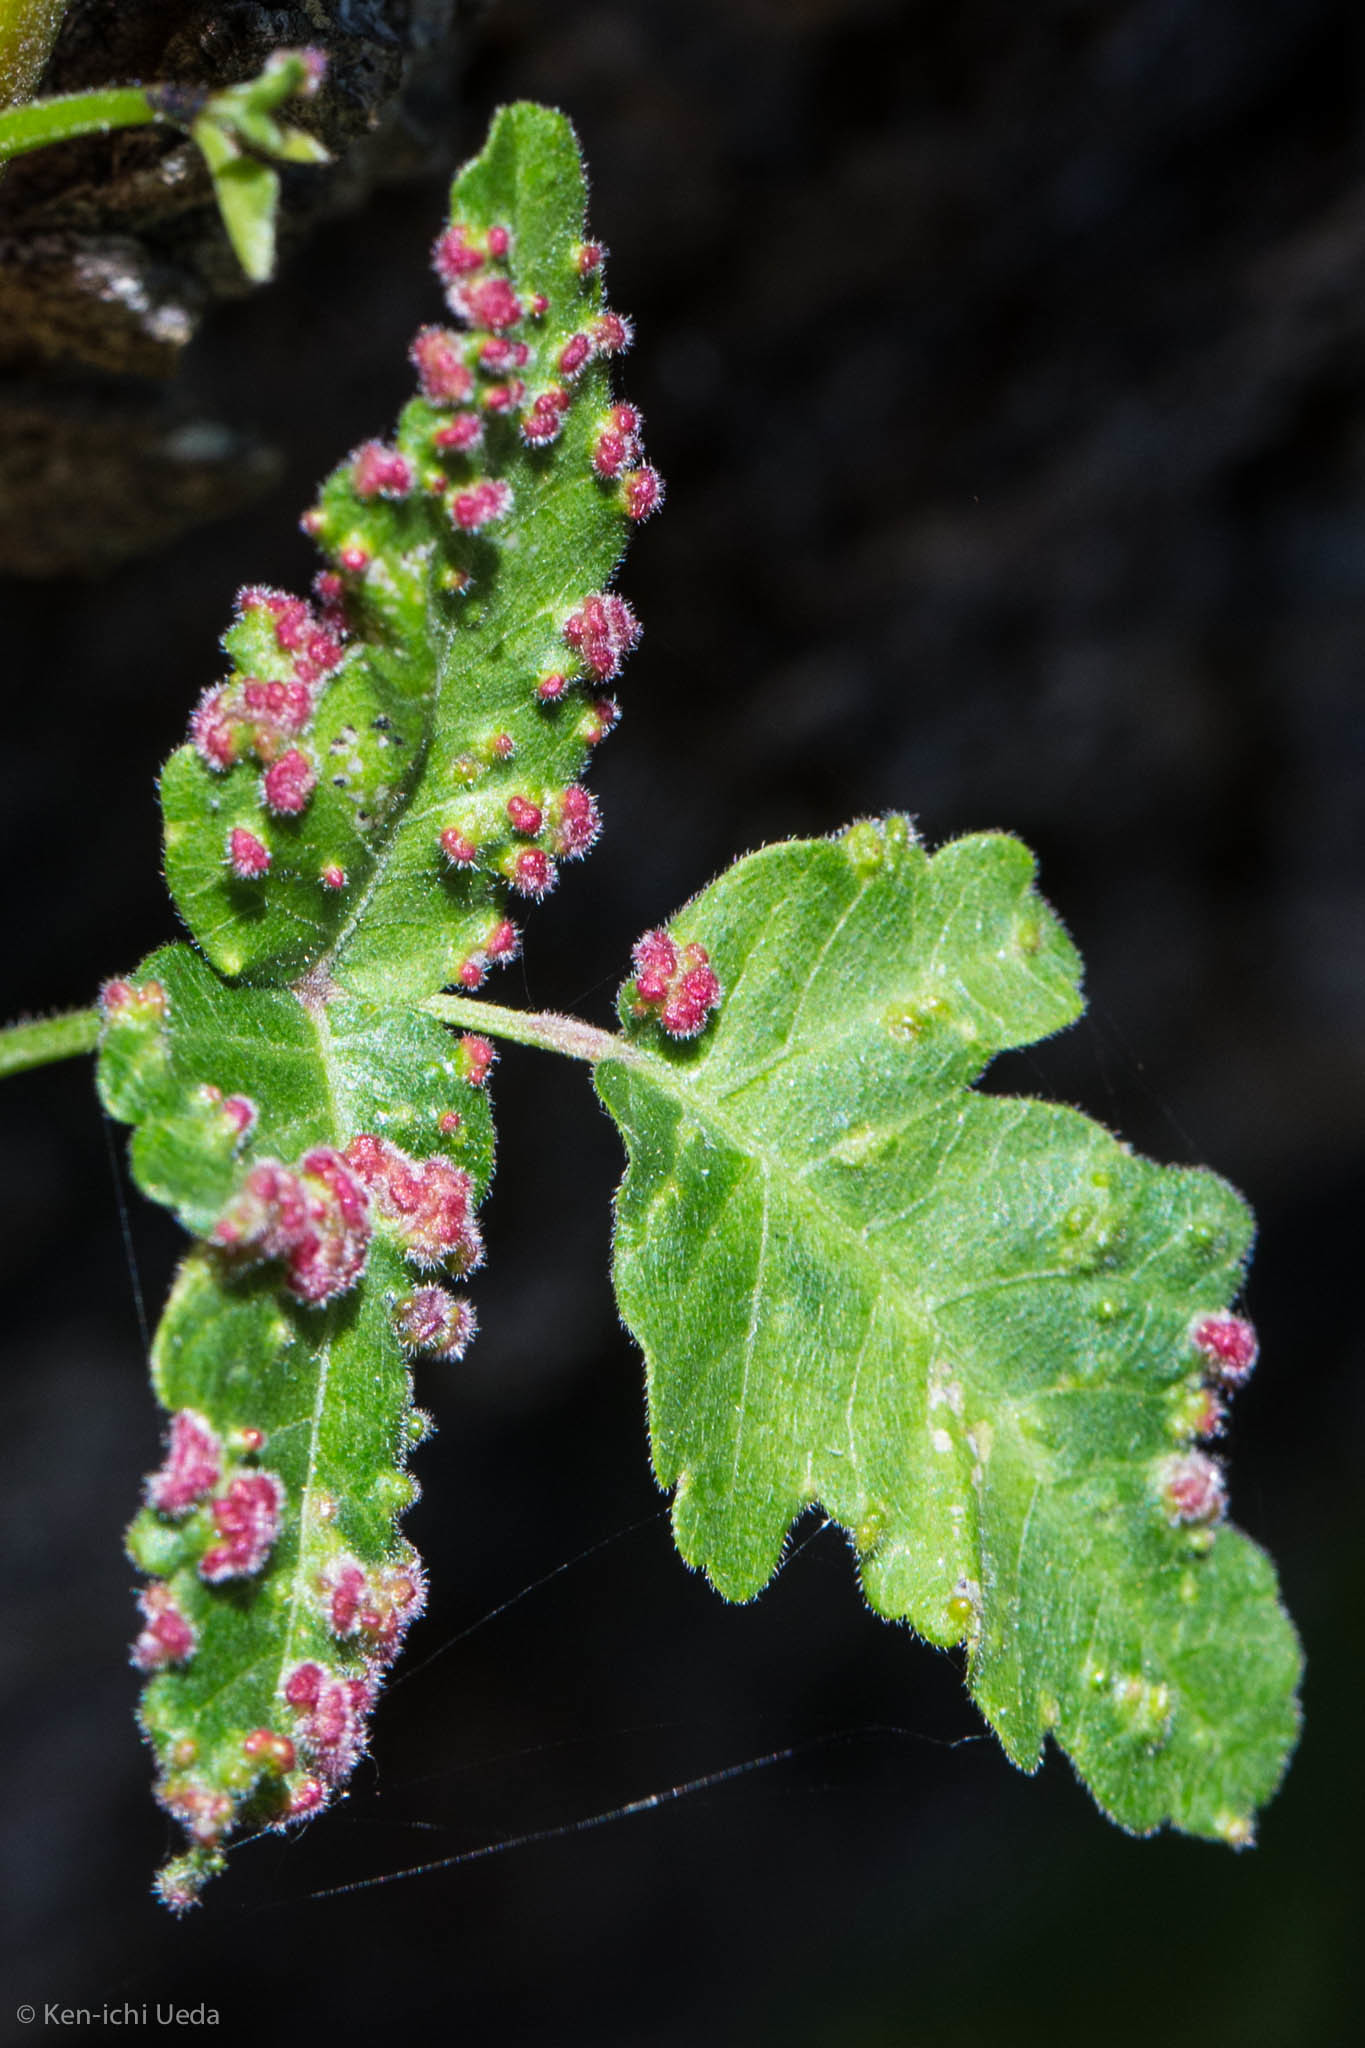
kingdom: Animalia
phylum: Arthropoda
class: Arachnida
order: Trombidiformes
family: Eriophyidae
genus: Aculops
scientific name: Aculops
